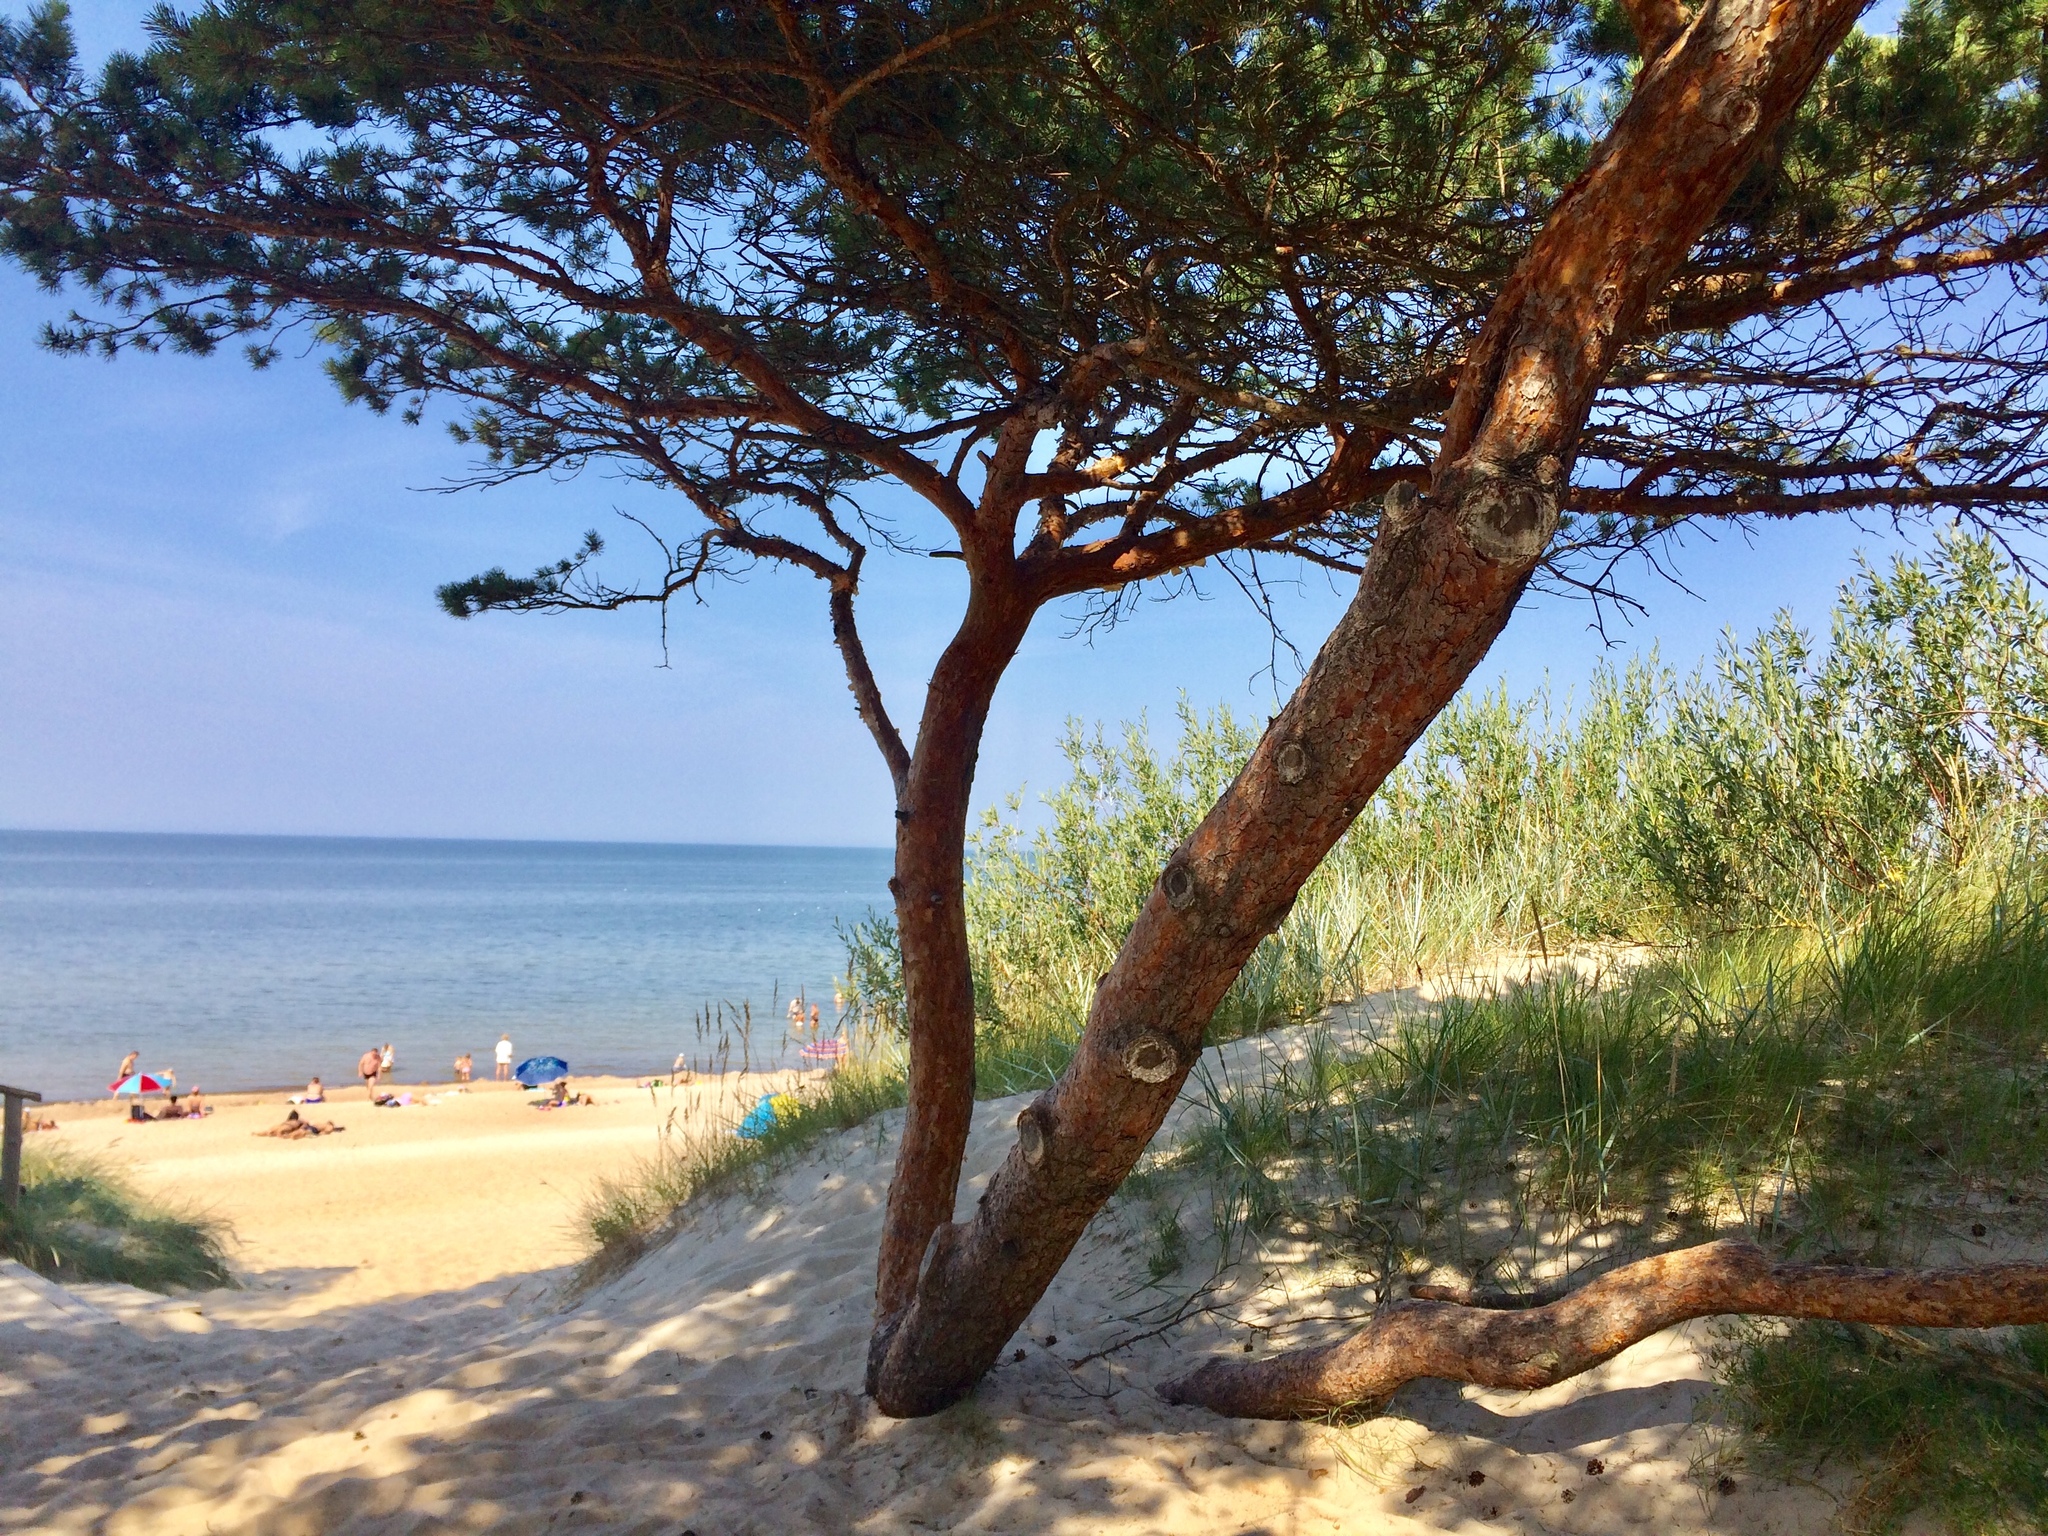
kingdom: Plantae
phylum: Tracheophyta
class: Pinopsida
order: Pinales
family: Pinaceae
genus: Pinus
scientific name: Pinus sylvestris
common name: Scots pine
